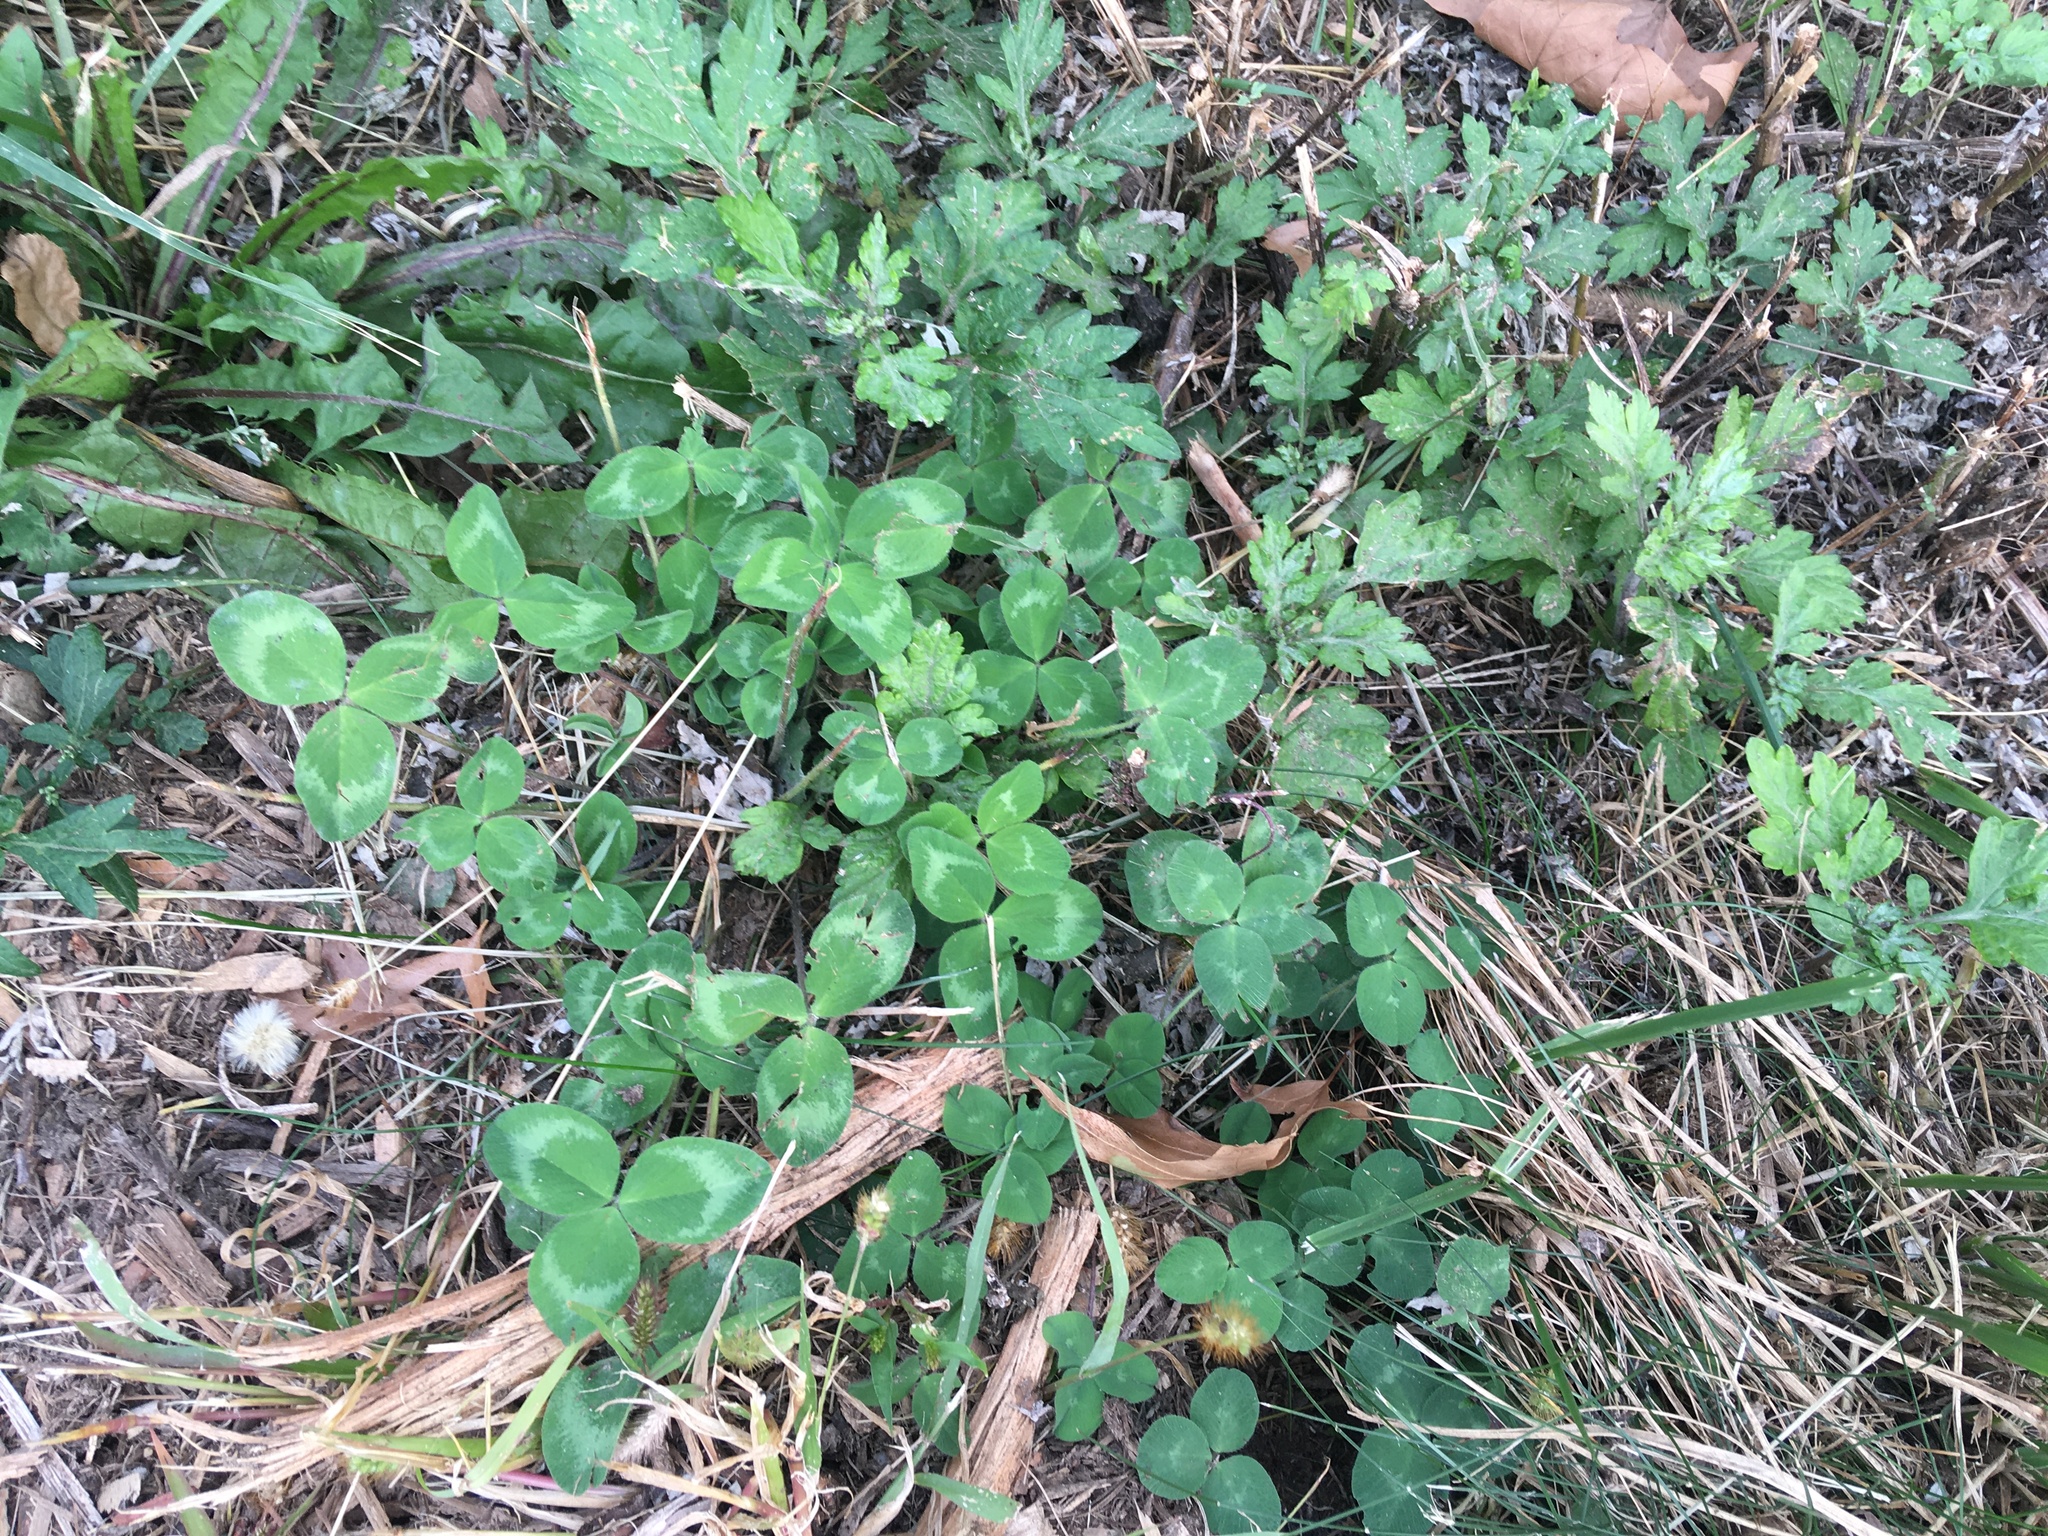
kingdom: Plantae
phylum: Tracheophyta
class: Magnoliopsida
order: Asterales
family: Asteraceae
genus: Artemisia
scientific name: Artemisia vulgaris
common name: Mugwort
